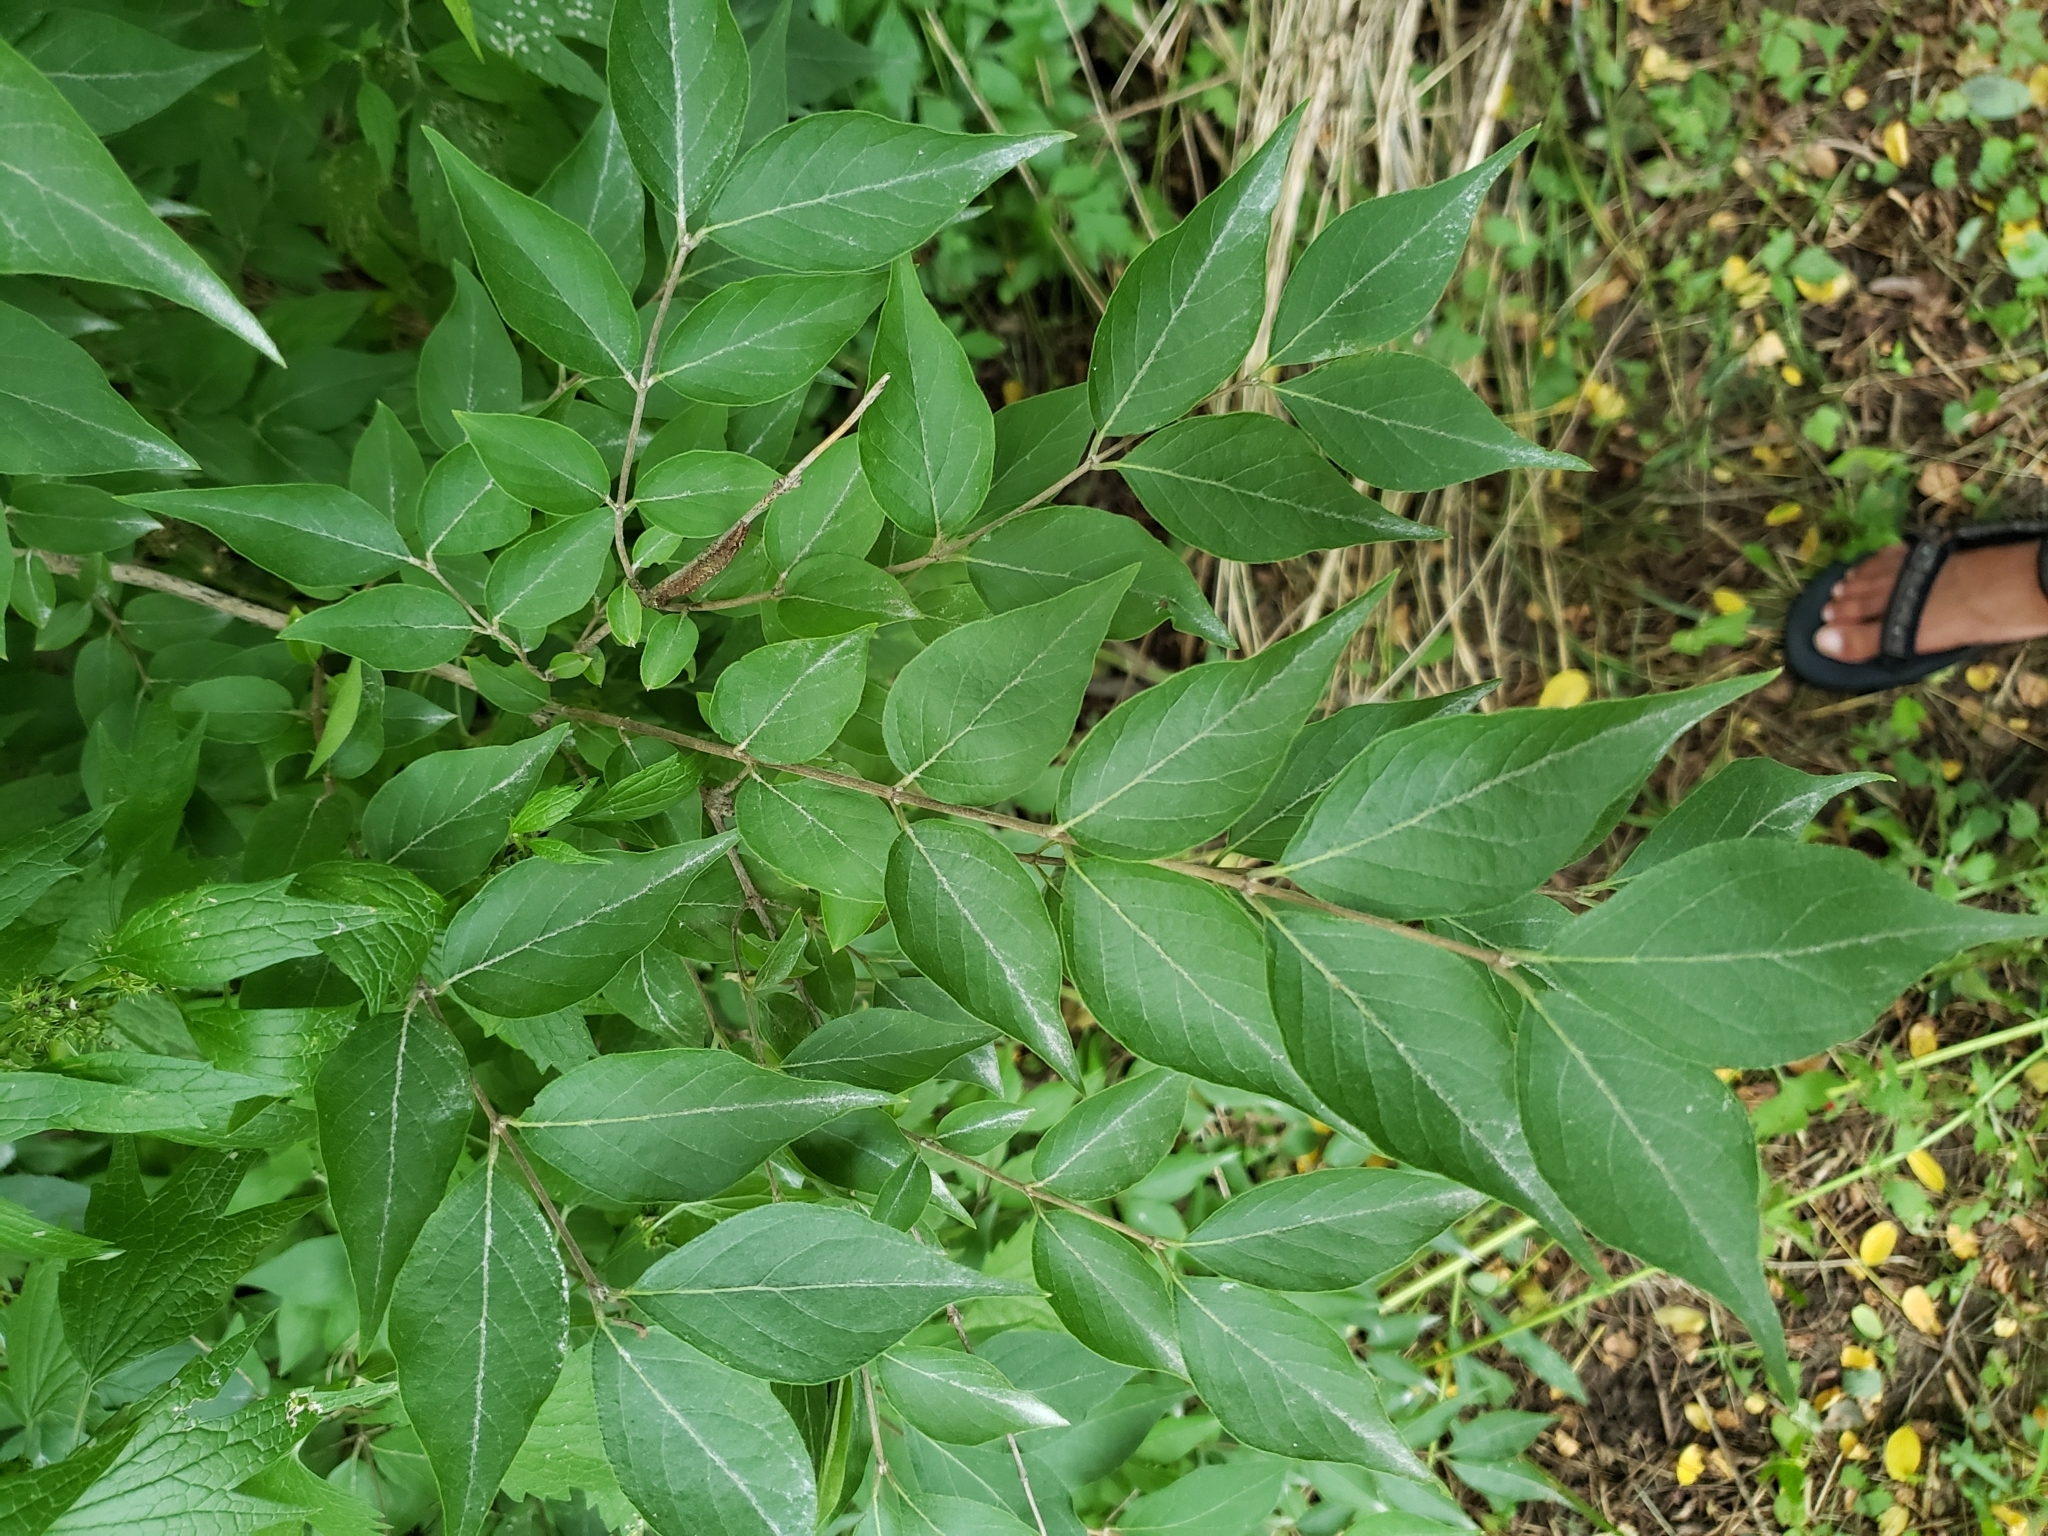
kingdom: Plantae
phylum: Tracheophyta
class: Magnoliopsida
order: Dipsacales
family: Caprifoliaceae
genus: Lonicera
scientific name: Lonicera maackii
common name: Amur honeysuckle
